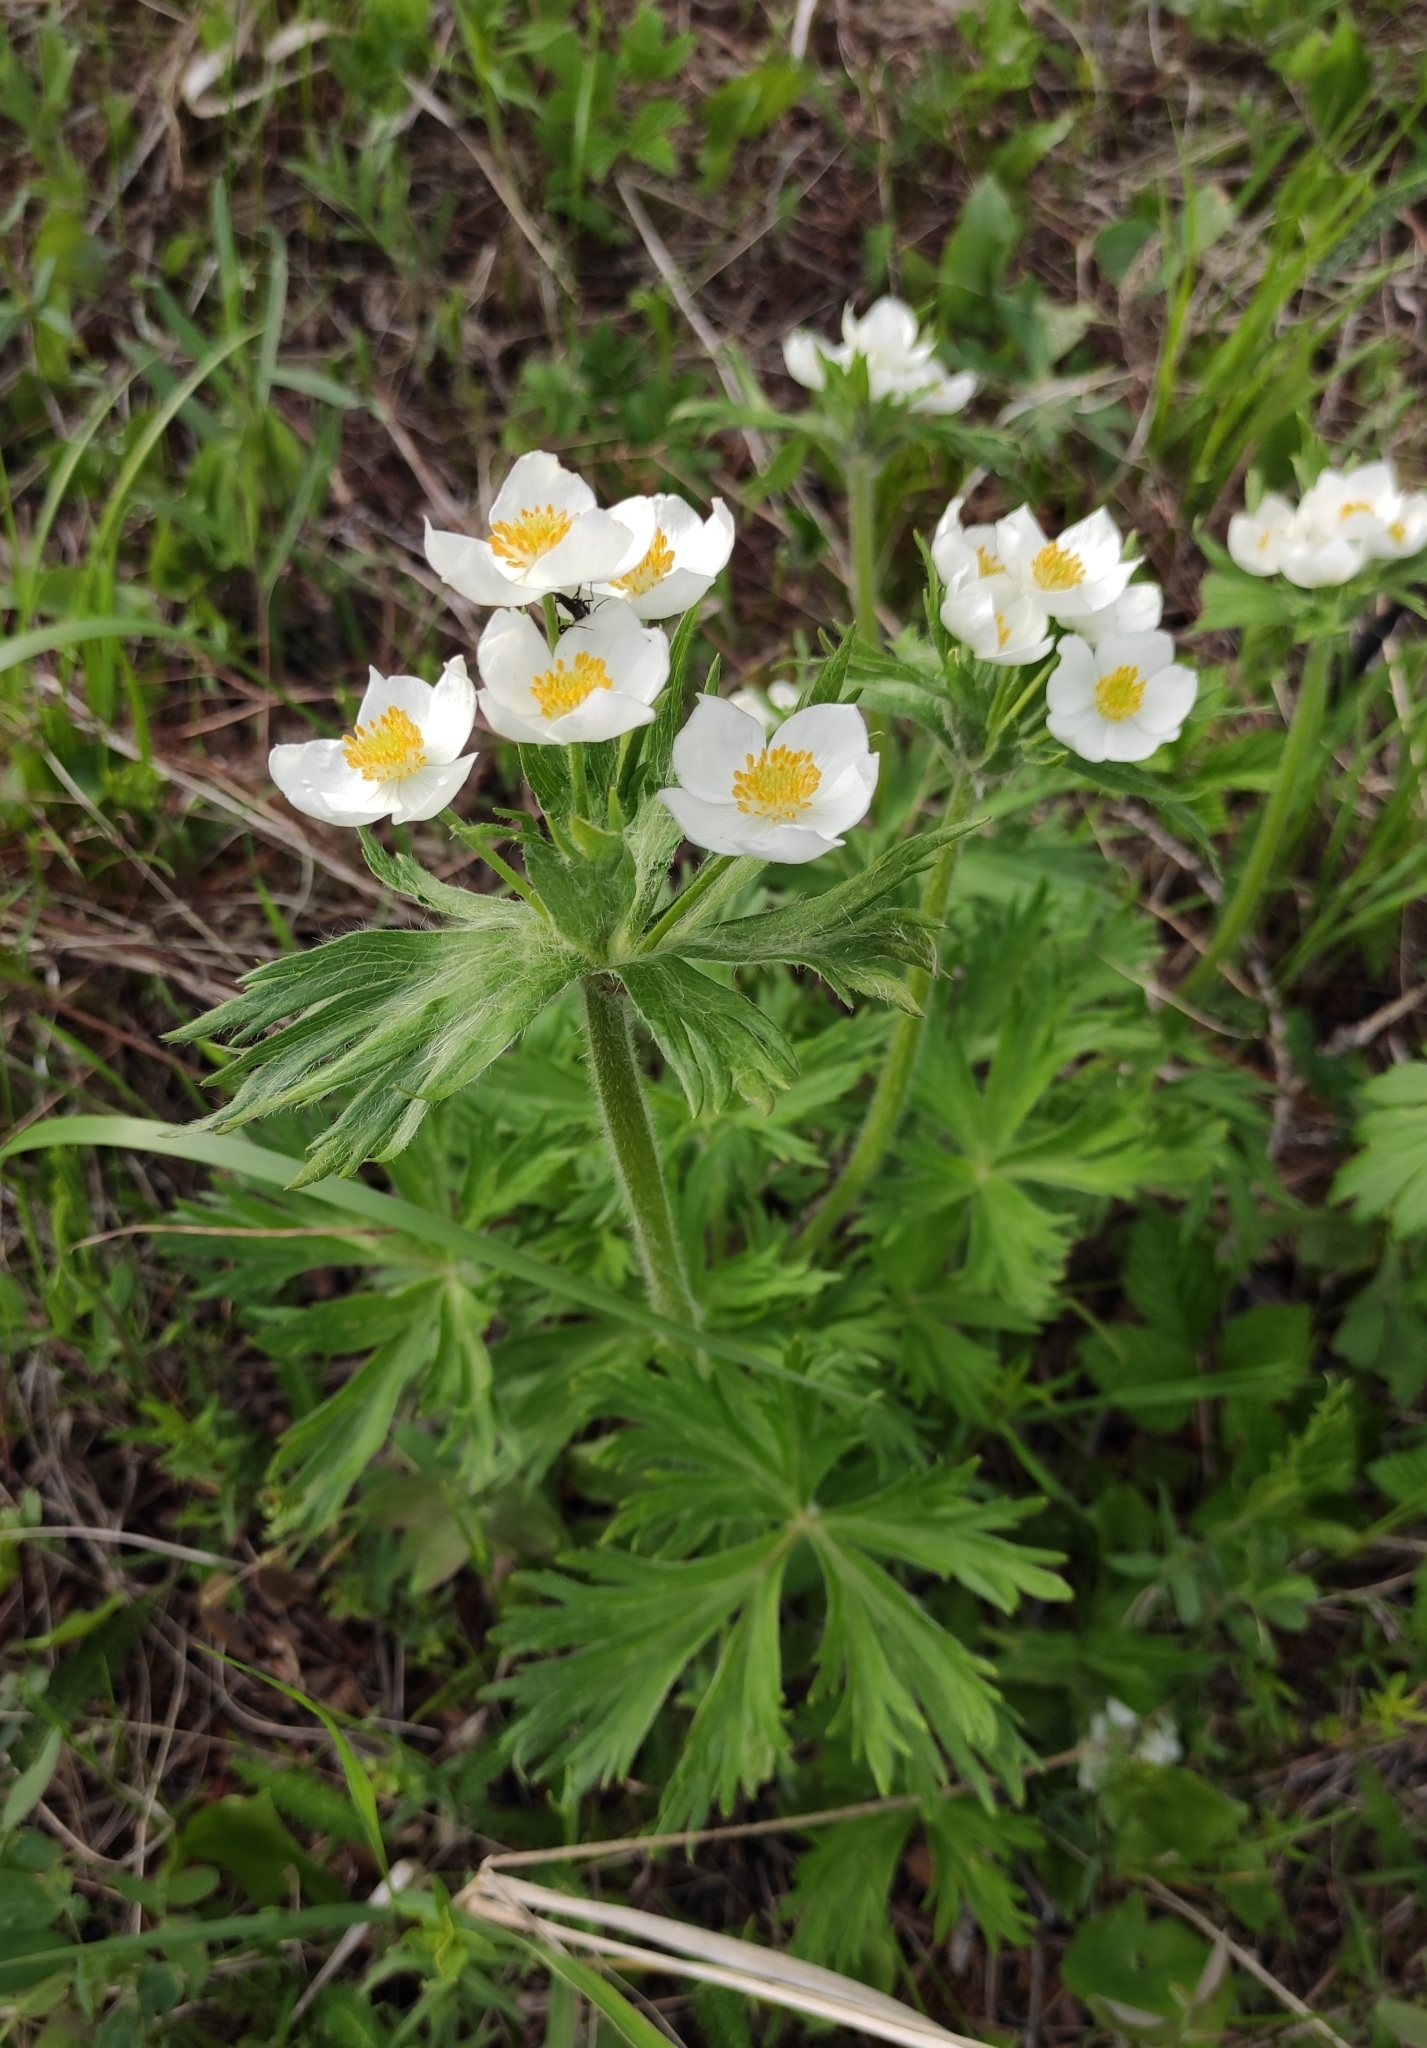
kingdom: Plantae
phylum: Tracheophyta
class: Magnoliopsida
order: Ranunculales
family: Ranunculaceae
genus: Anemonastrum
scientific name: Anemonastrum narcissiflorum
